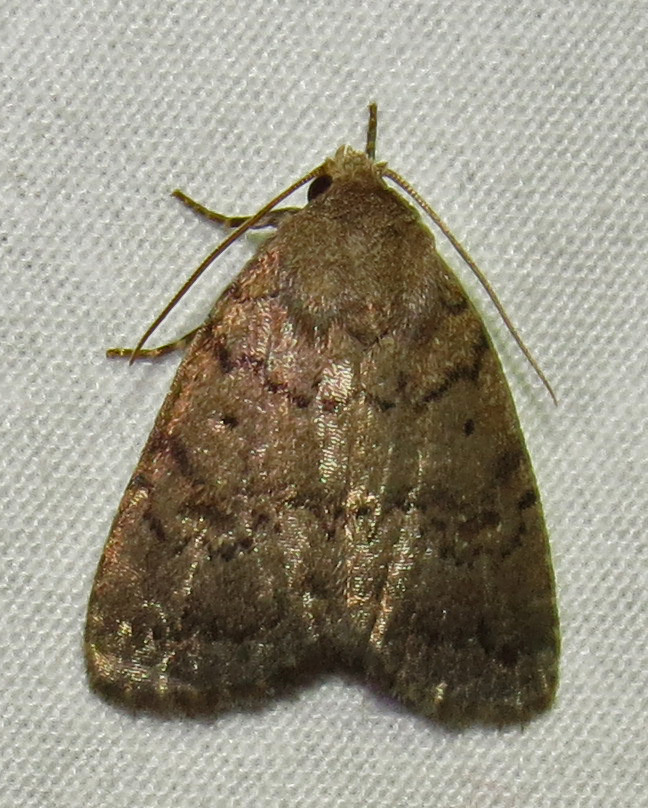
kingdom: Animalia
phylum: Arthropoda
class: Insecta
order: Lepidoptera
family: Noctuidae
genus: Athetis
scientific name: Athetis tarda
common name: Slowpoke moth
